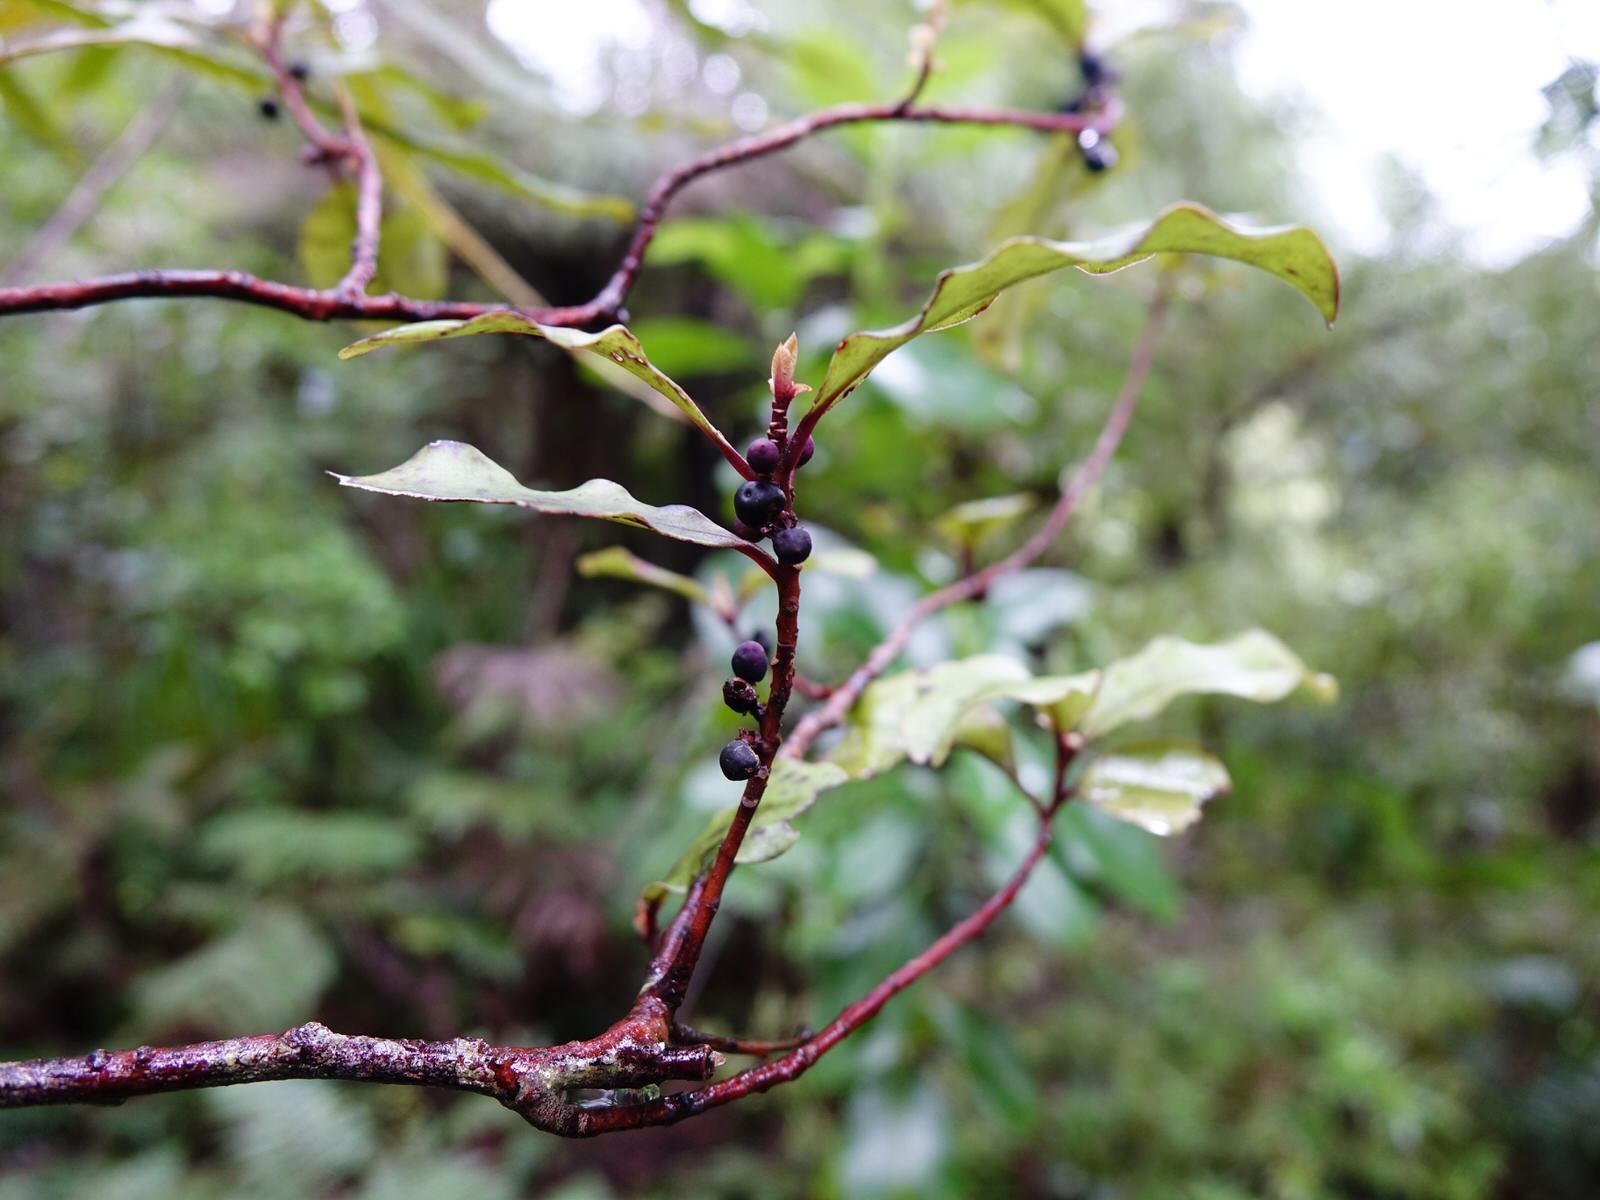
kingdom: Plantae
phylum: Tracheophyta
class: Magnoliopsida
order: Ericales
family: Primulaceae
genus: Myrsine
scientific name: Myrsine australis
